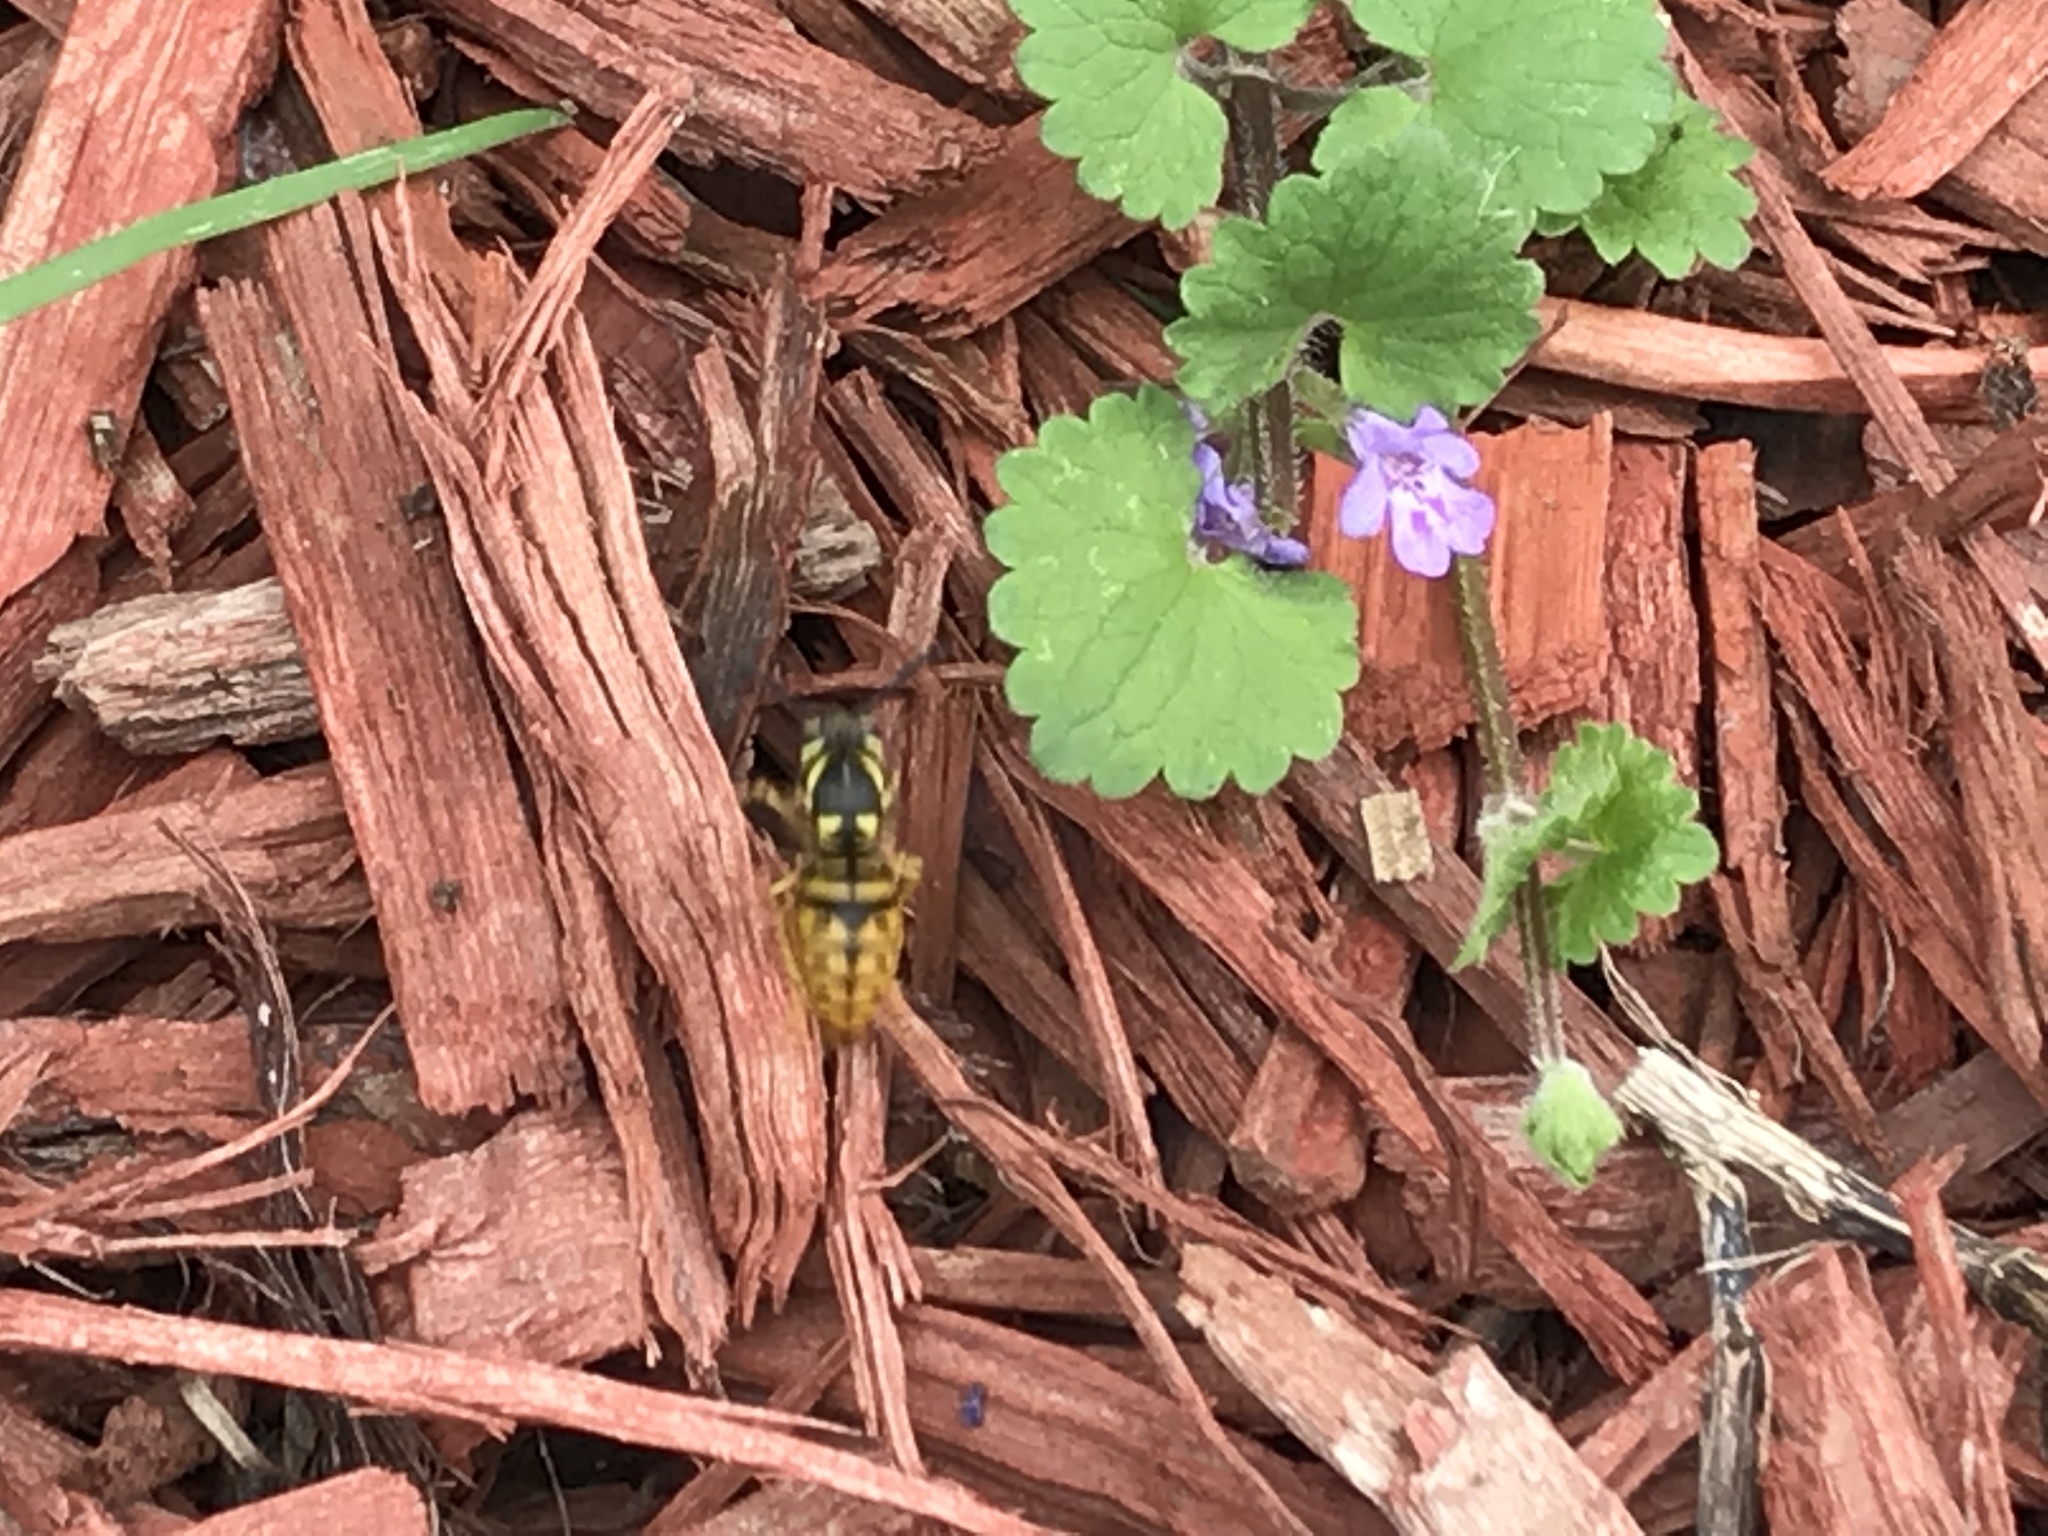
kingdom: Animalia
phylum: Arthropoda
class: Insecta
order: Hymenoptera
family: Vespidae
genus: Vespula
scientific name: Vespula maculifrons
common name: Eastern yellowjacket
